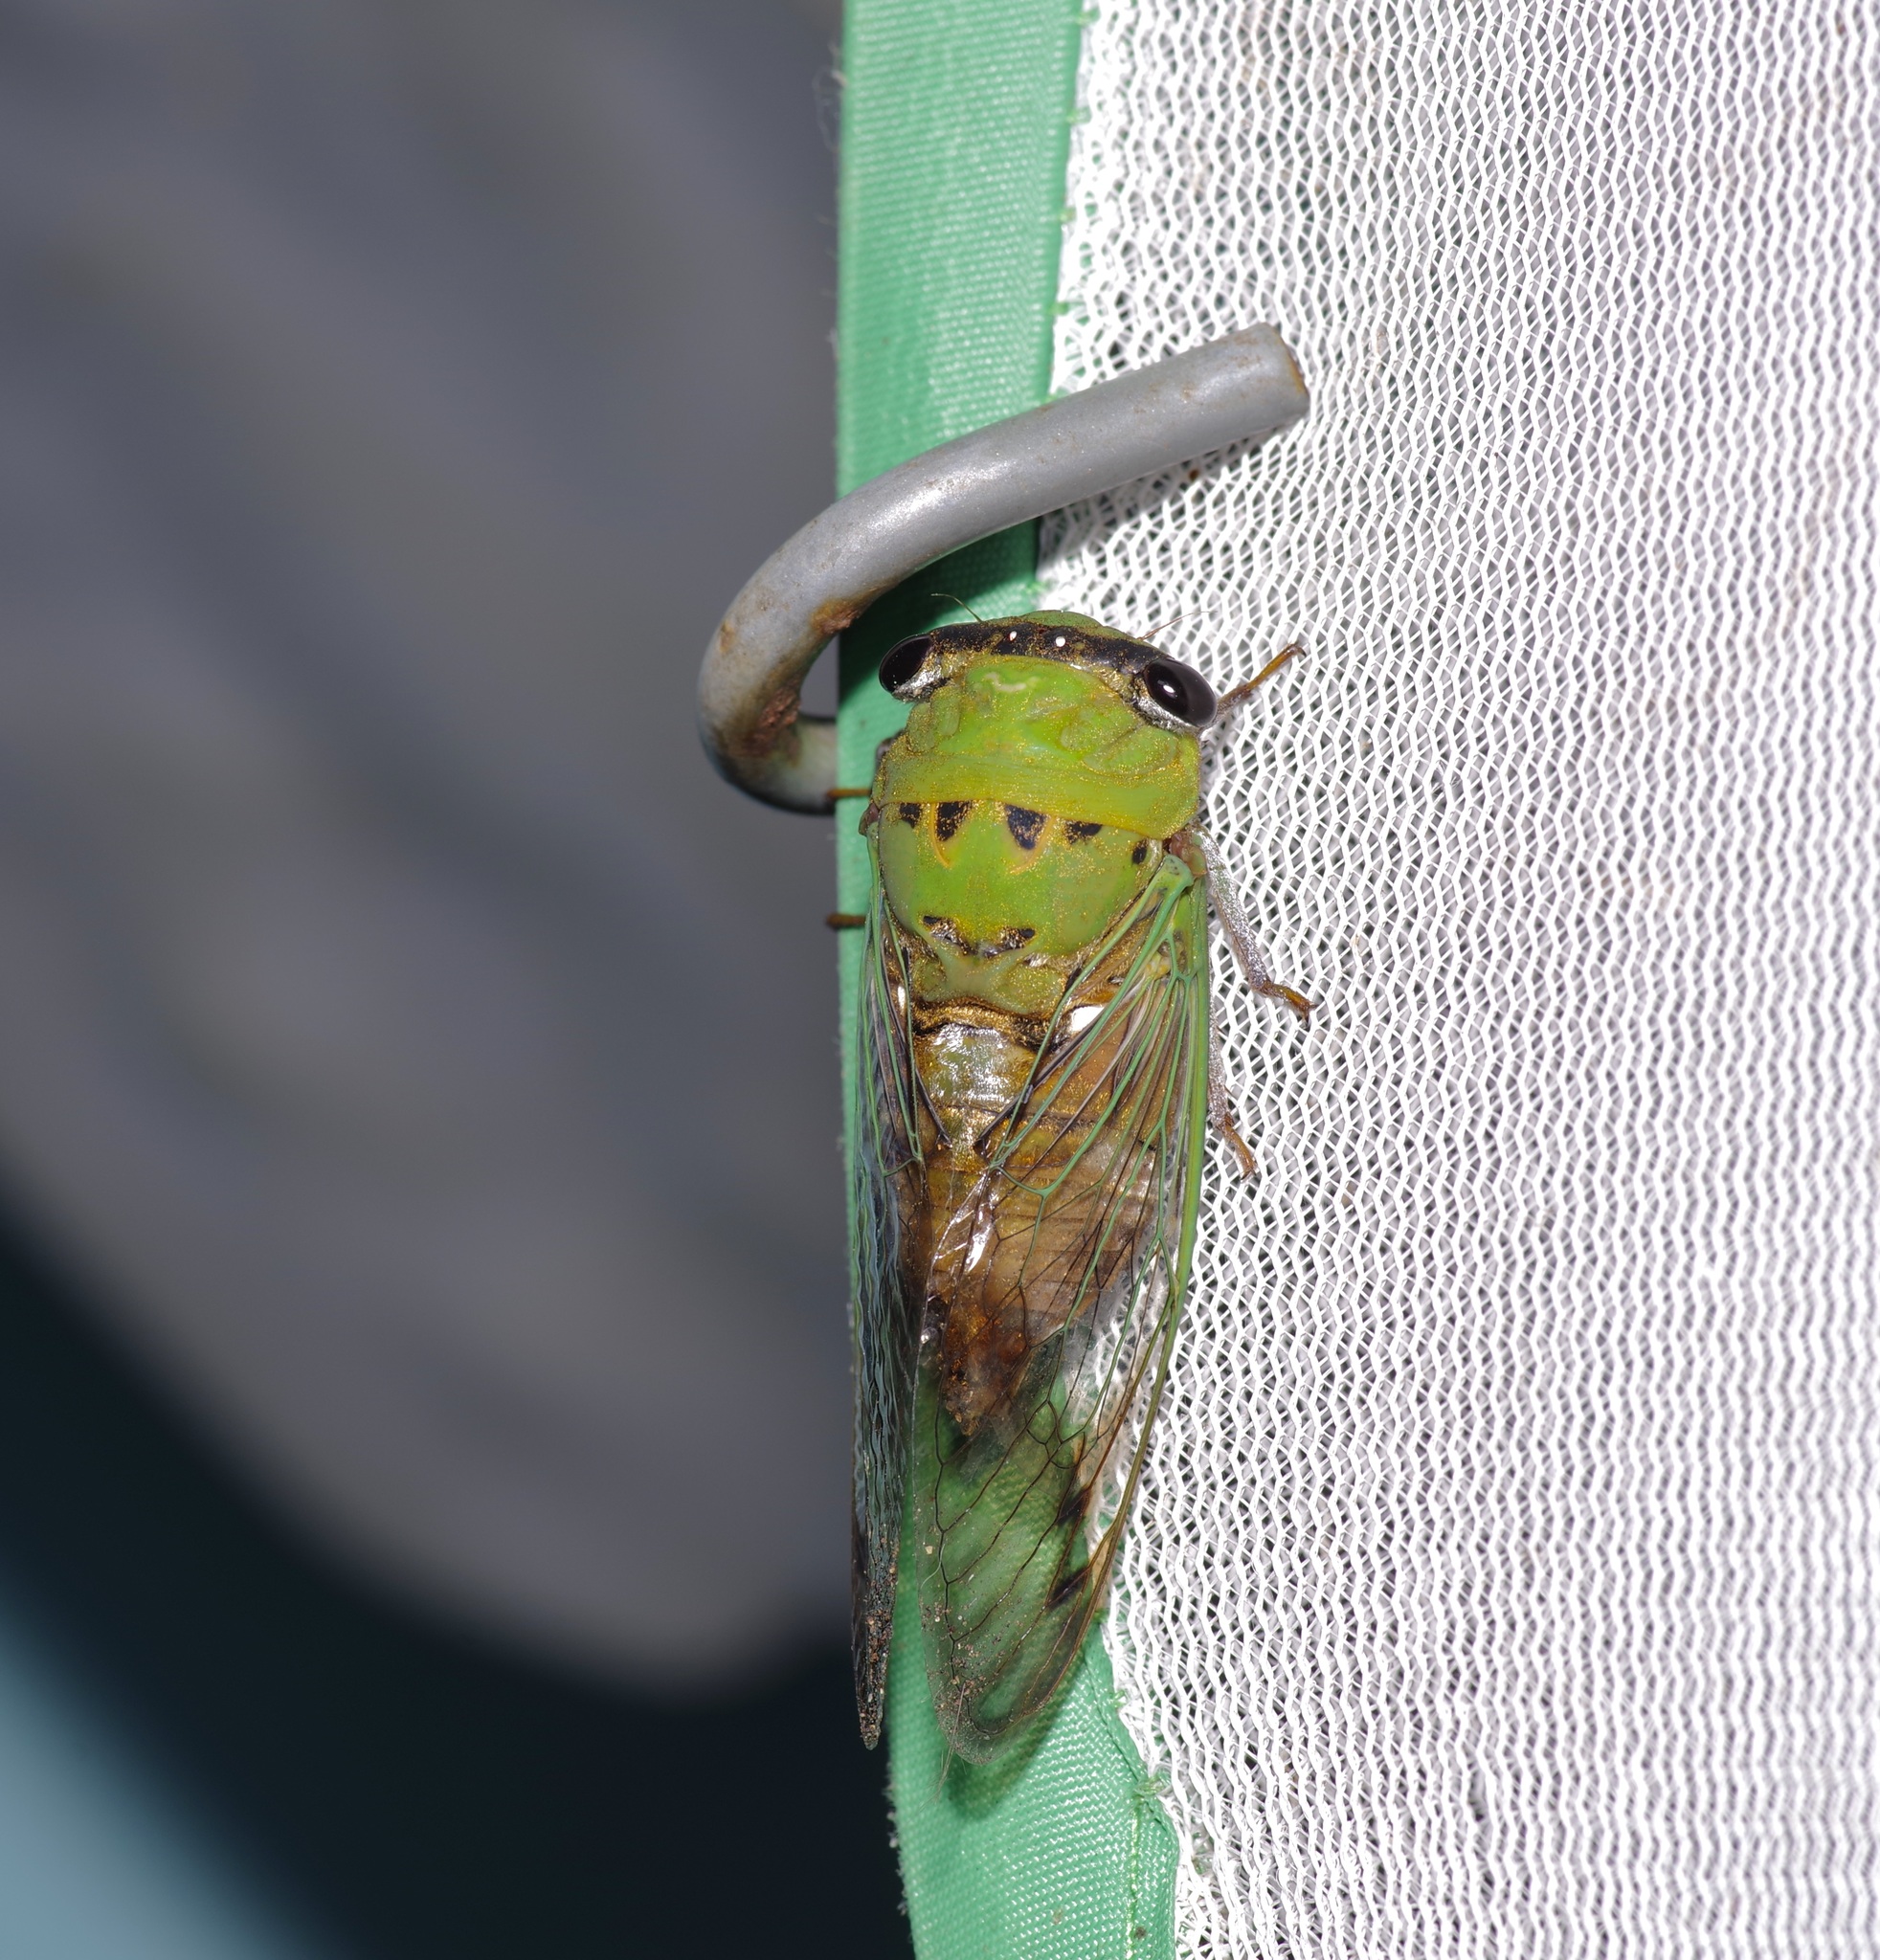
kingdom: Animalia
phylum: Arthropoda
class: Insecta
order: Hemiptera
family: Cicadidae
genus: Neotibicen
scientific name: Neotibicen superbus
